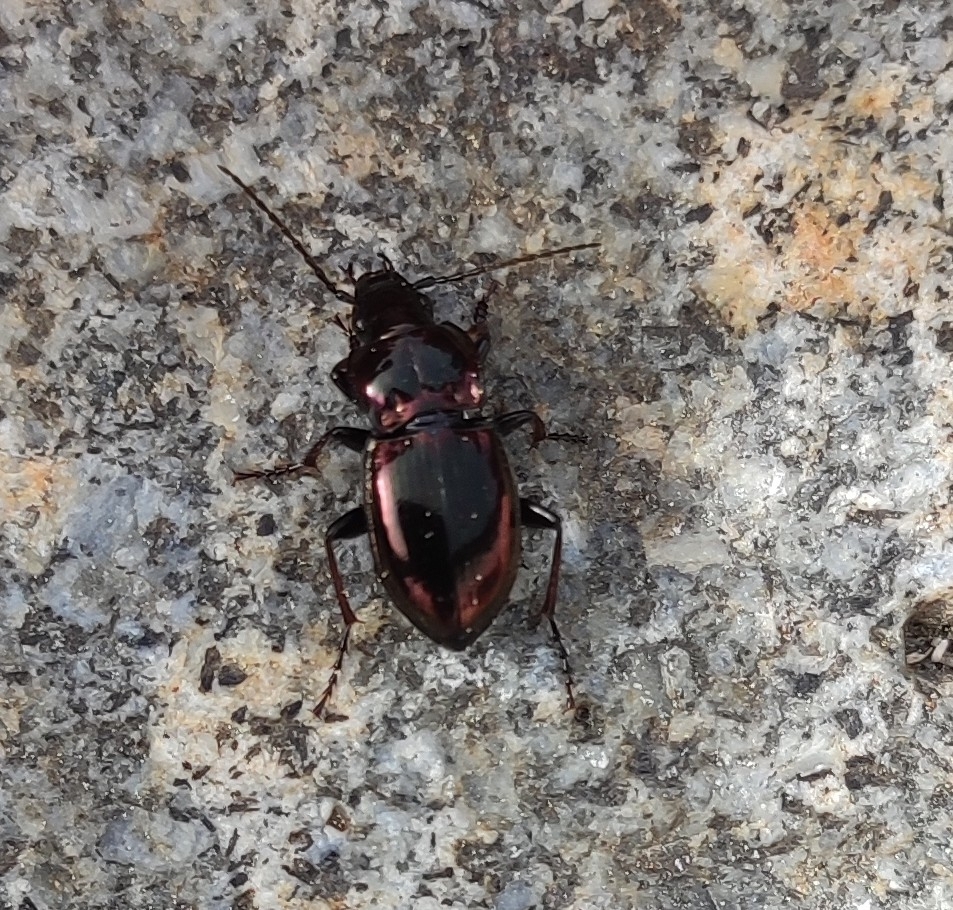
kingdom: Animalia
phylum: Arthropoda
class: Insecta
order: Coleoptera
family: Carabidae
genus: Pterostichus
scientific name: Pterostichus burmeisteri
